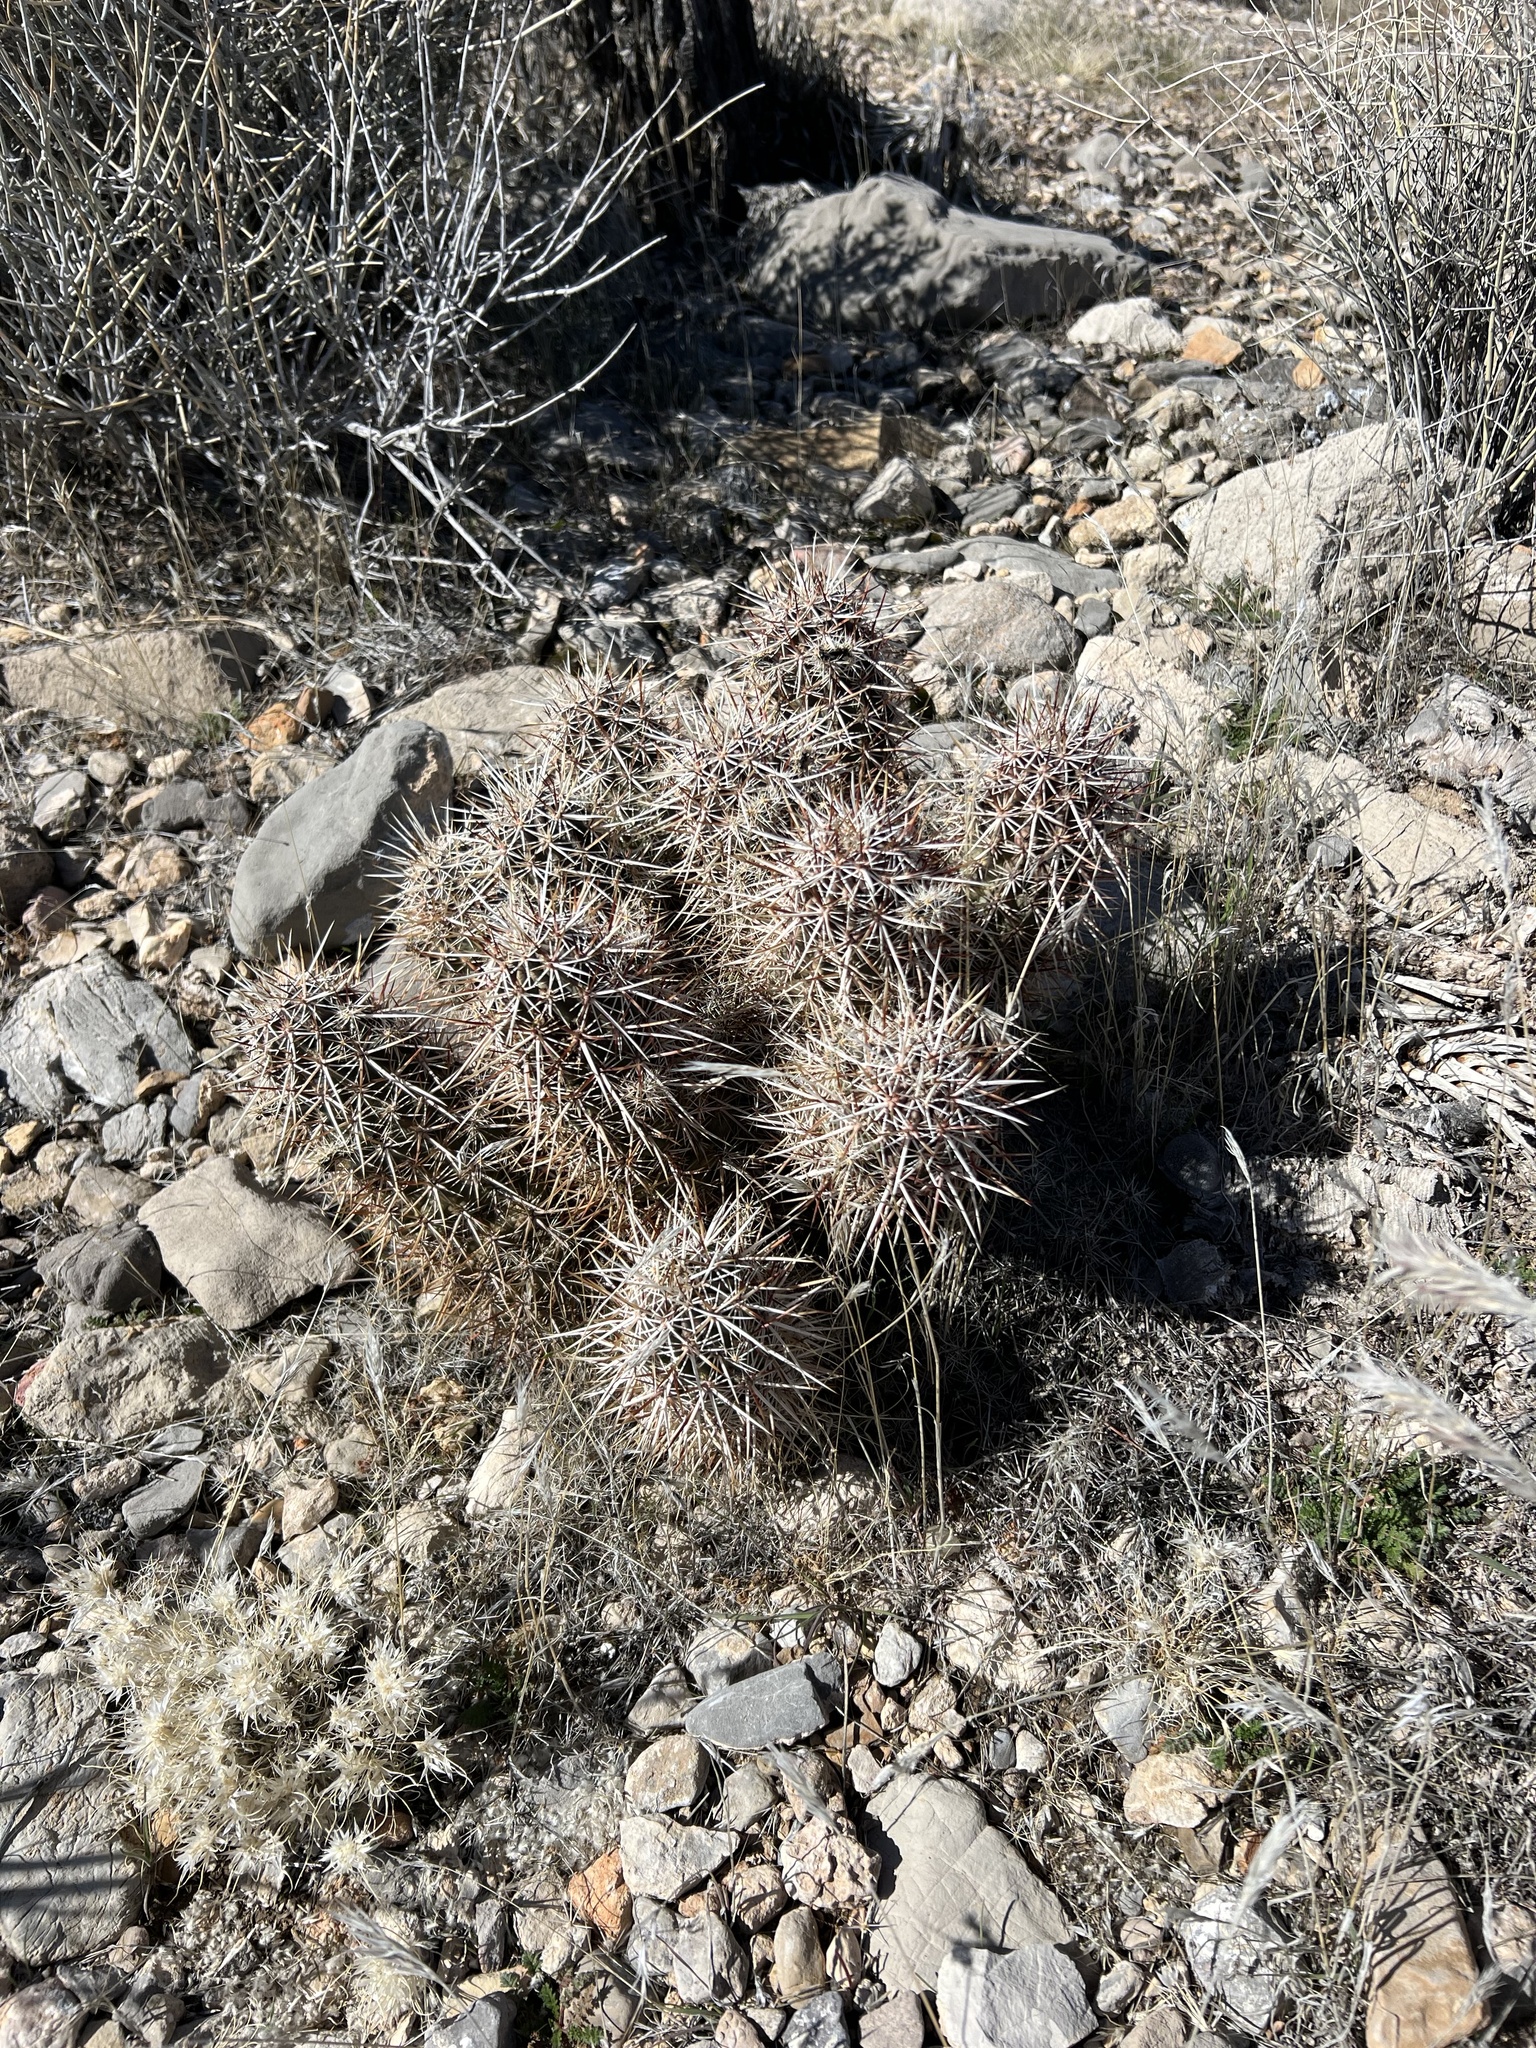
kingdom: Plantae
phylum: Tracheophyta
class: Magnoliopsida
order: Caryophyllales
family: Cactaceae
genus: Echinocereus
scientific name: Echinocereus engelmannii
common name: Engelmann's hedgehog cactus
